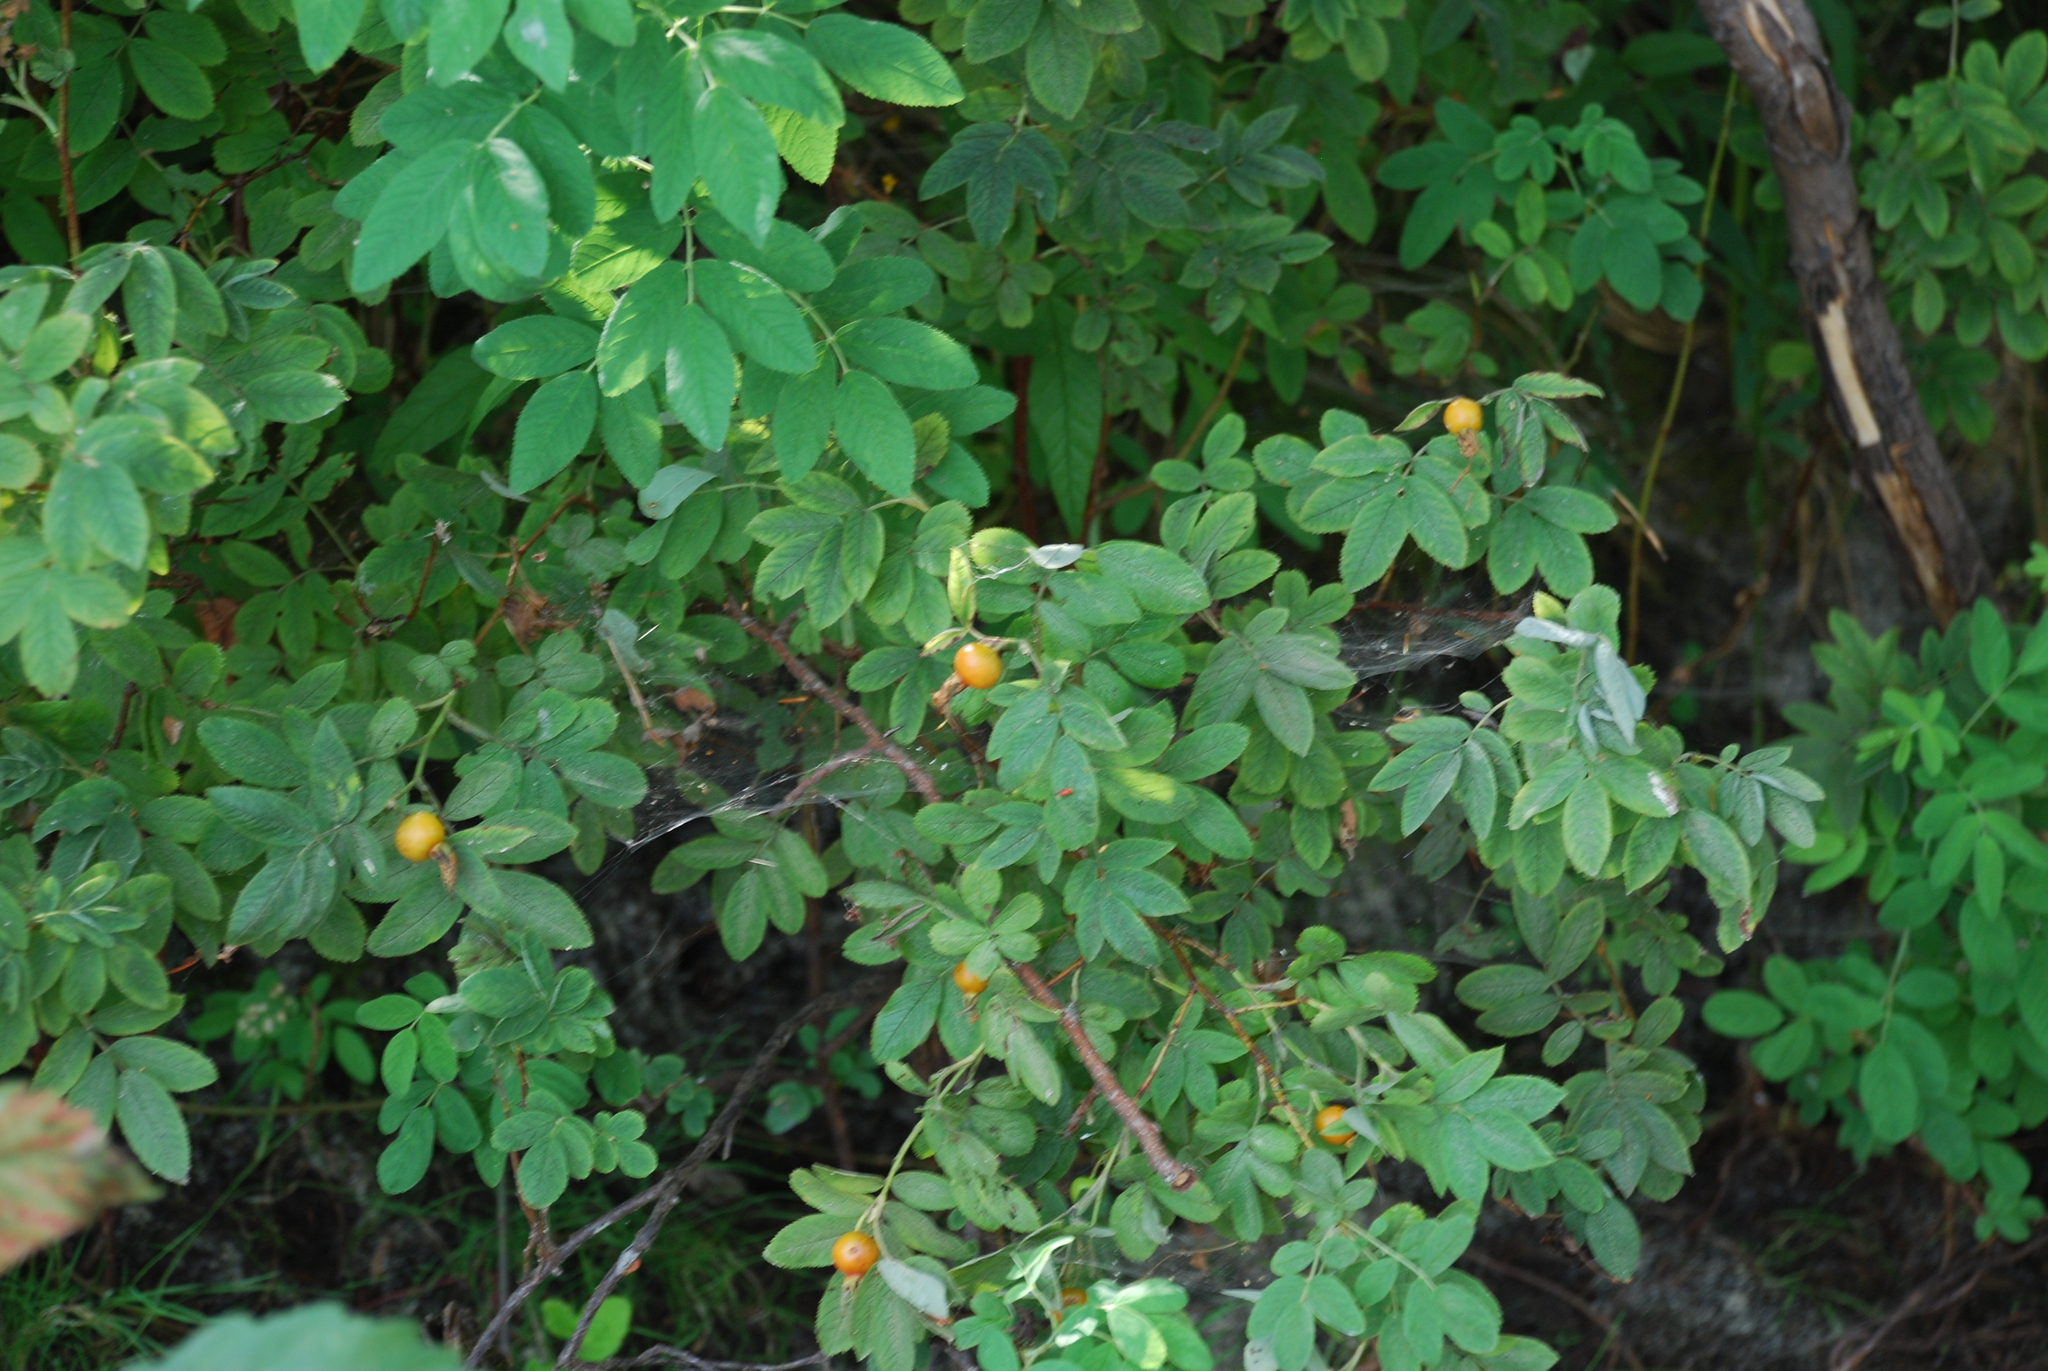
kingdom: Plantae
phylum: Tracheophyta
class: Magnoliopsida
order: Rosales
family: Rosaceae
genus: Rosa
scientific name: Rosa majalis
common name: Cinnamon rose
